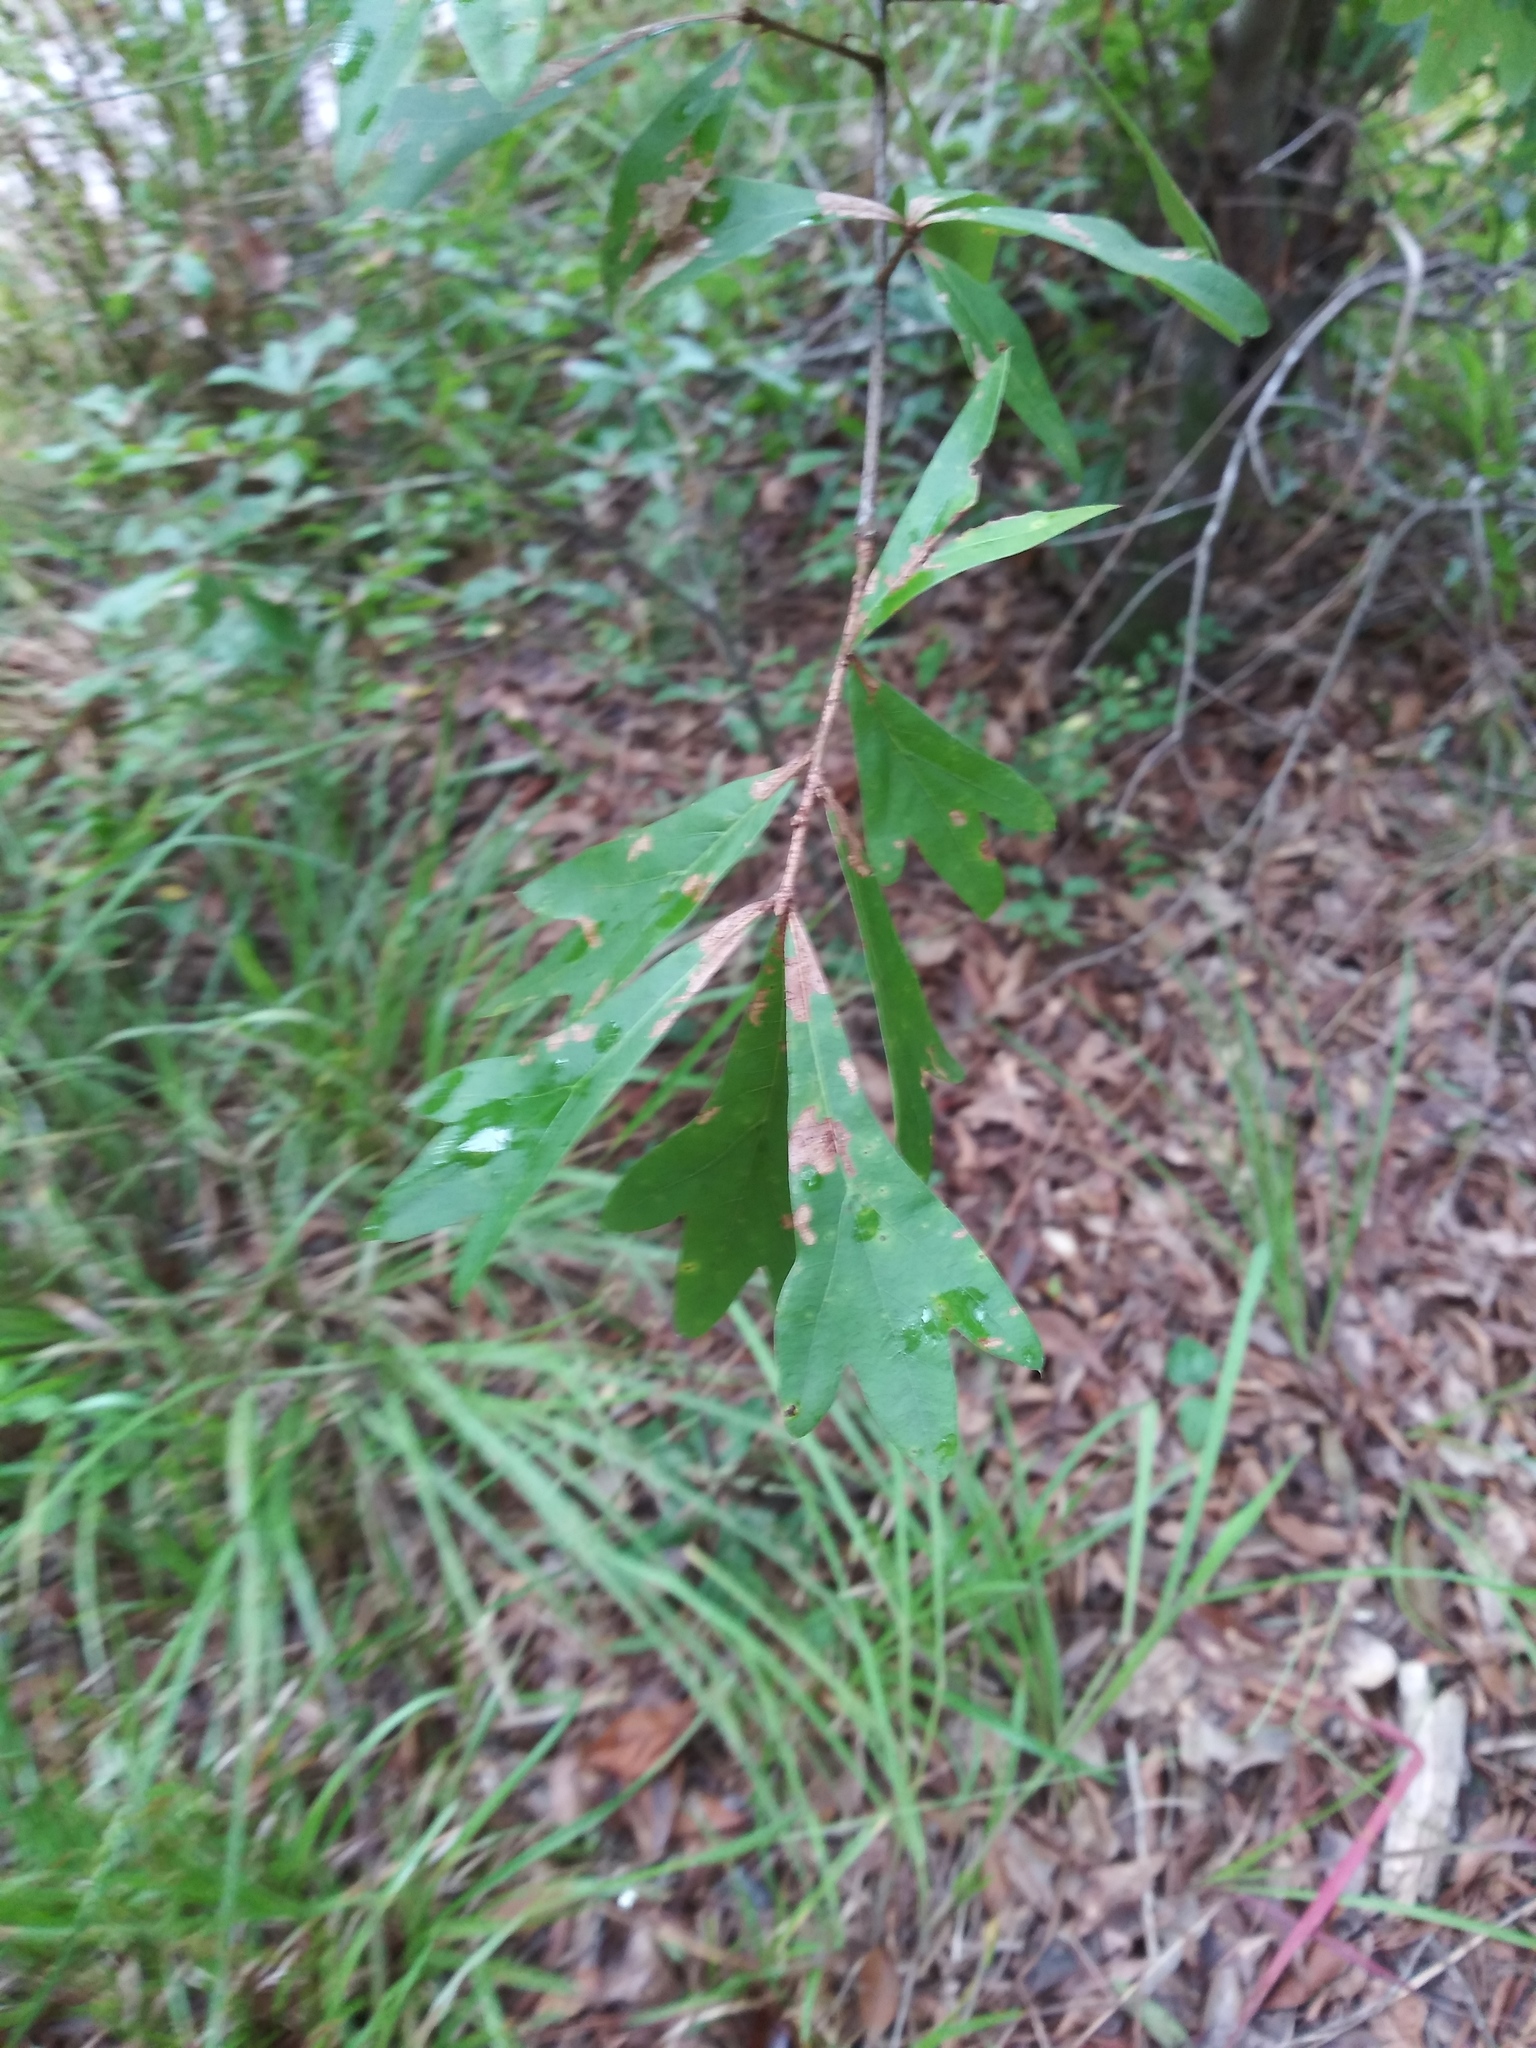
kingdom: Plantae
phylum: Tracheophyta
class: Magnoliopsida
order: Fagales
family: Fagaceae
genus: Quercus
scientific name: Quercus nigra
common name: Water oak
